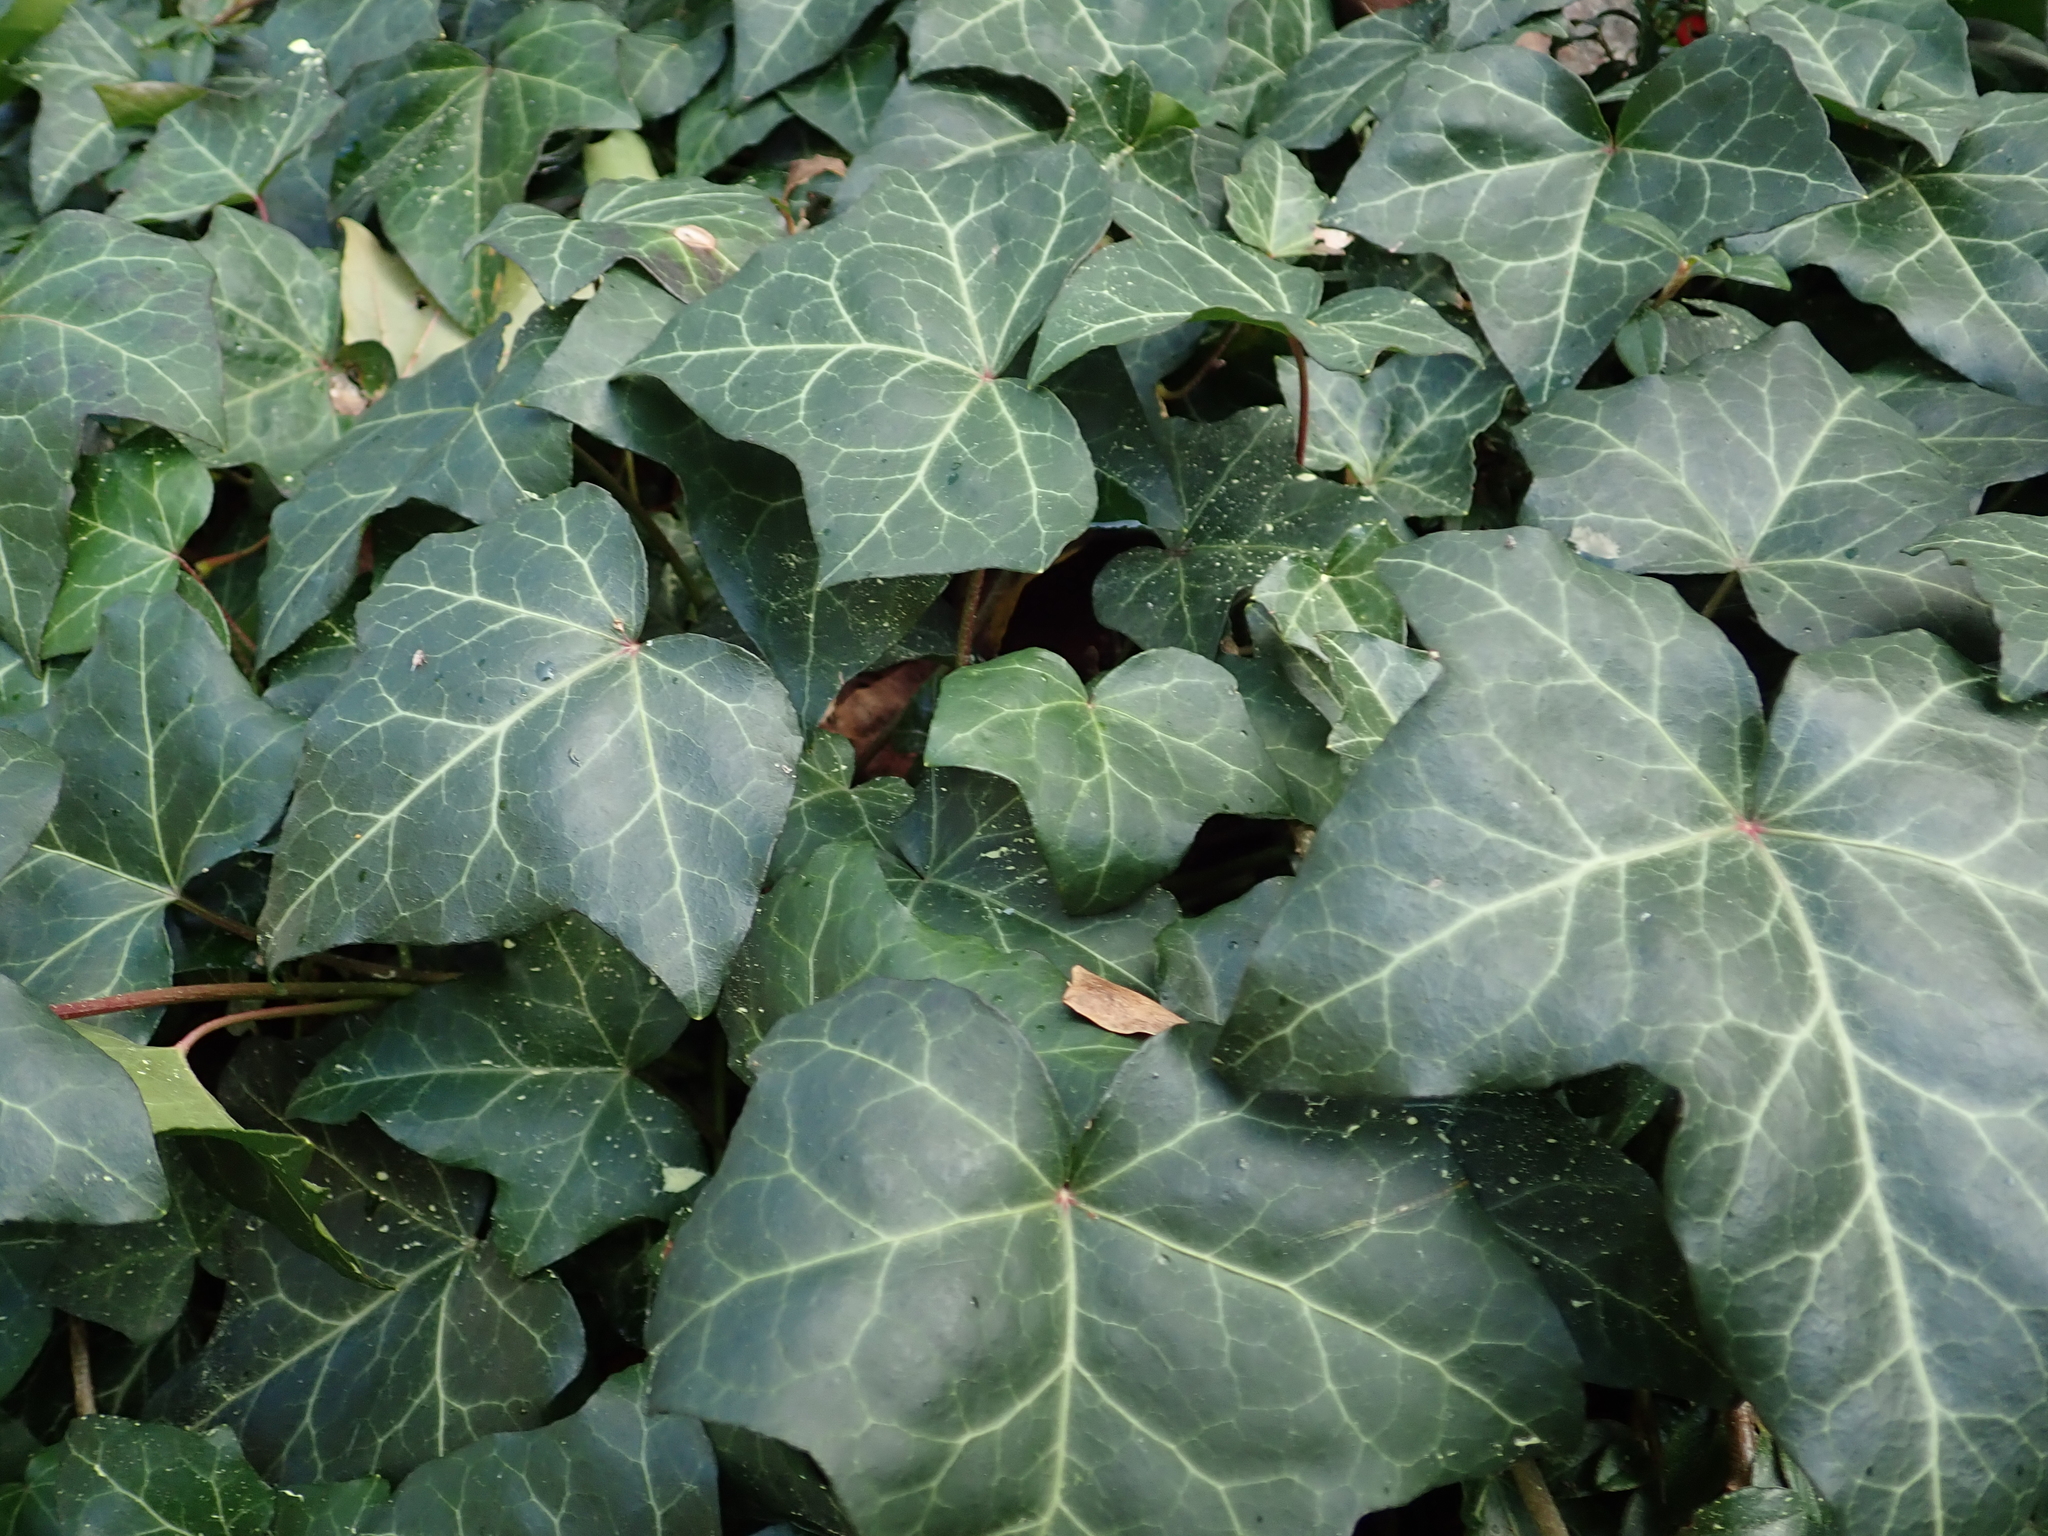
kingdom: Plantae
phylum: Tracheophyta
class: Magnoliopsida
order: Apiales
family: Araliaceae
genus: Hedera
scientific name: Hedera helix
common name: Ivy
